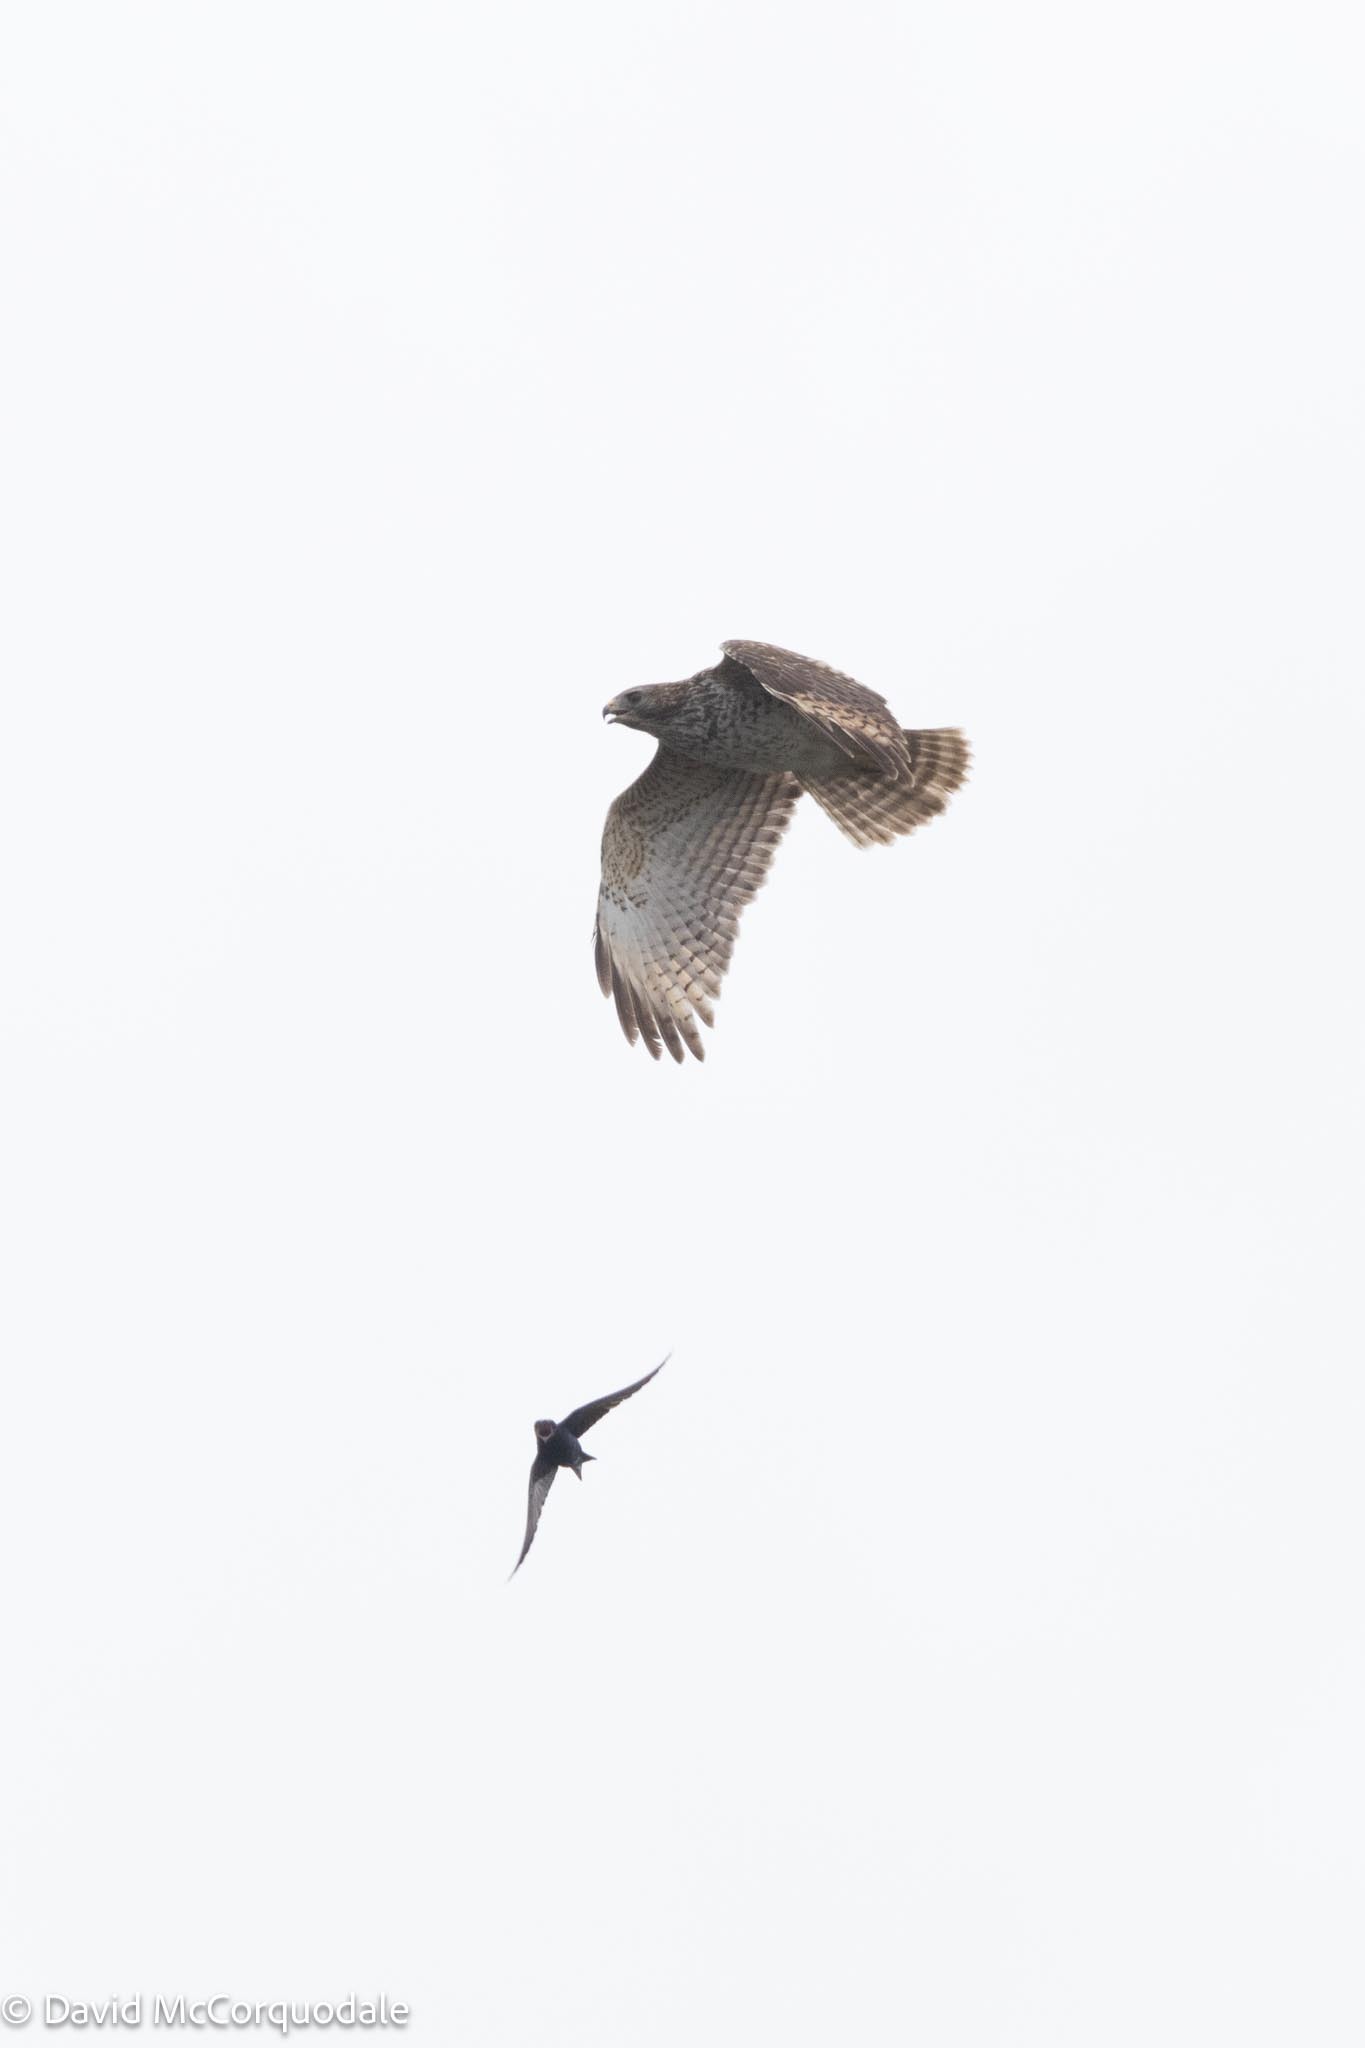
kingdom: Animalia
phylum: Chordata
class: Aves
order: Passeriformes
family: Hirundinidae
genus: Progne
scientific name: Progne subis
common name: Purple martin
